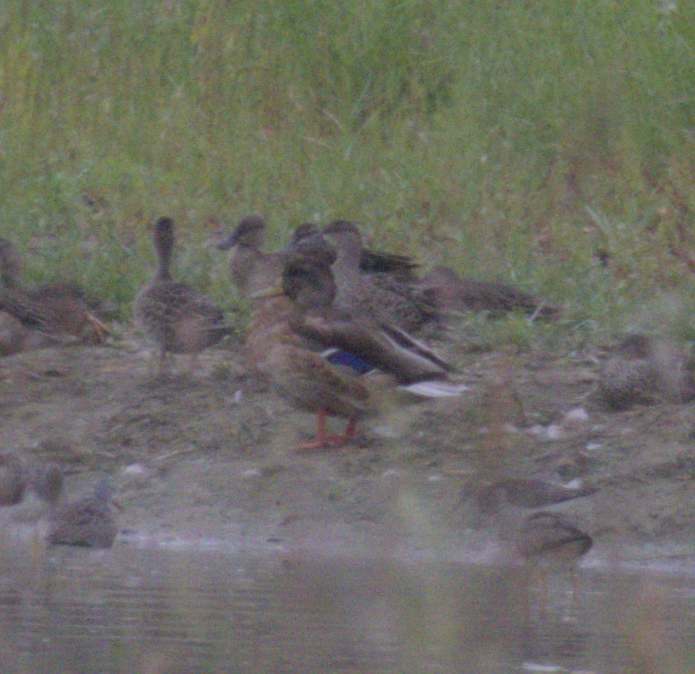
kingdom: Animalia
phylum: Chordata
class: Aves
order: Anseriformes
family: Anatidae
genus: Anas
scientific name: Anas platyrhynchos
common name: Mallard
